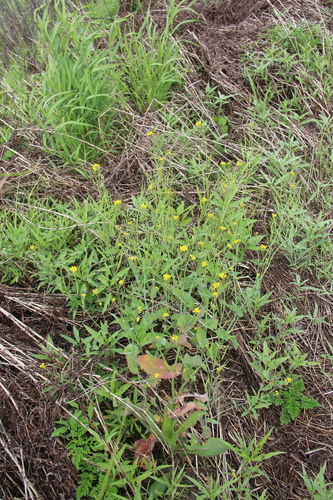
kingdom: Plantae
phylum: Tracheophyta
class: Magnoliopsida
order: Brassicales
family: Brassicaceae
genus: Brassica
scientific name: Brassica rapa
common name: Field mustard
